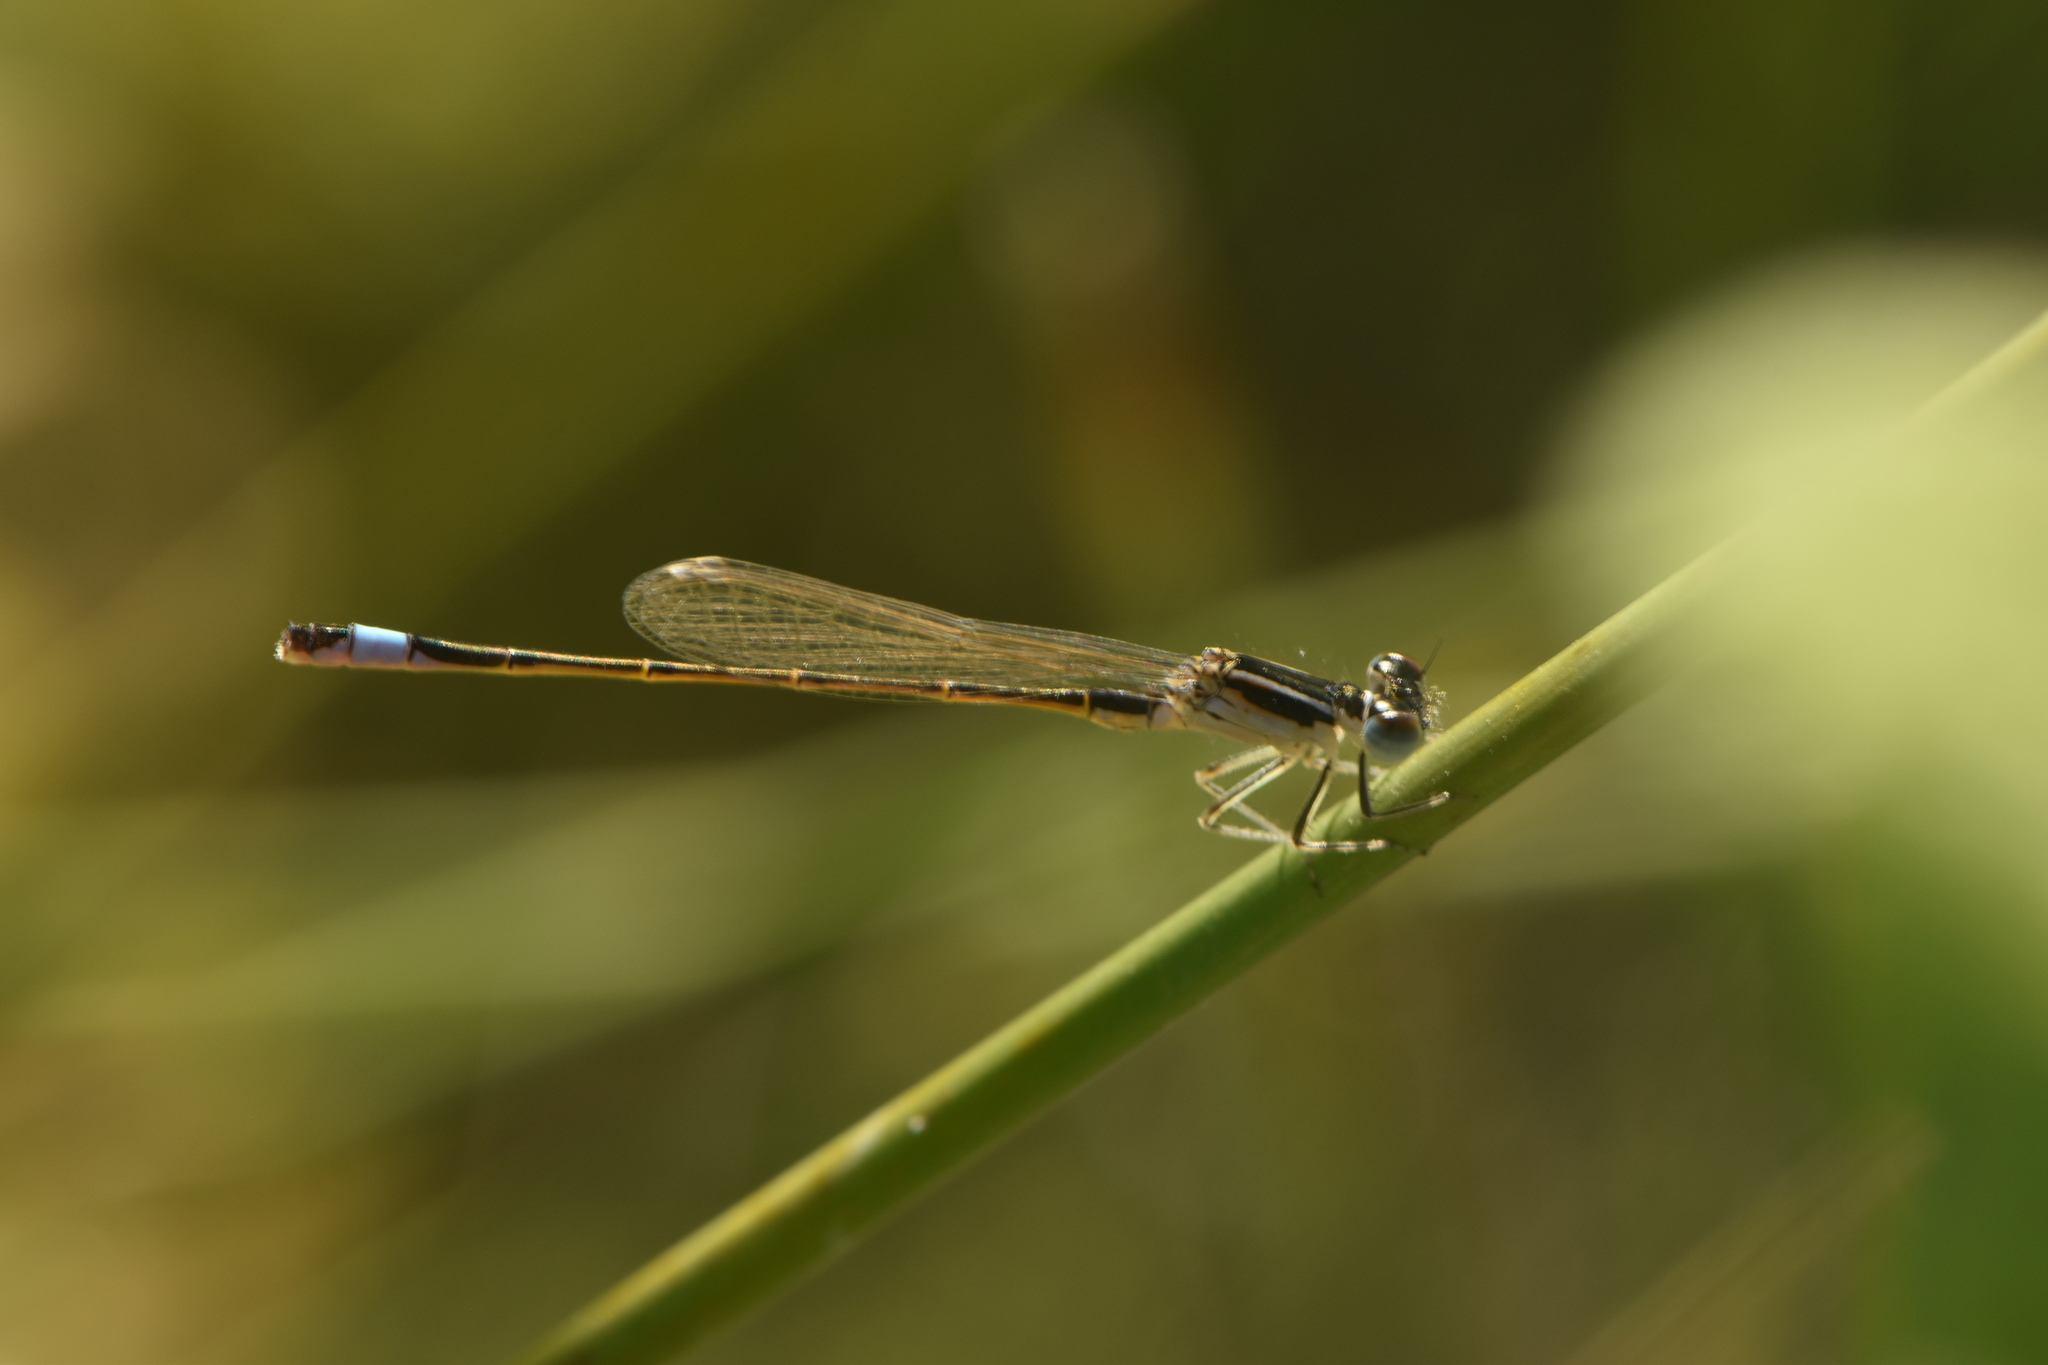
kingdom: Animalia
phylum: Arthropoda
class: Insecta
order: Odonata
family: Coenagrionidae
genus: Ischnura
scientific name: Ischnura graellsii
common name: Iberian bluetail
